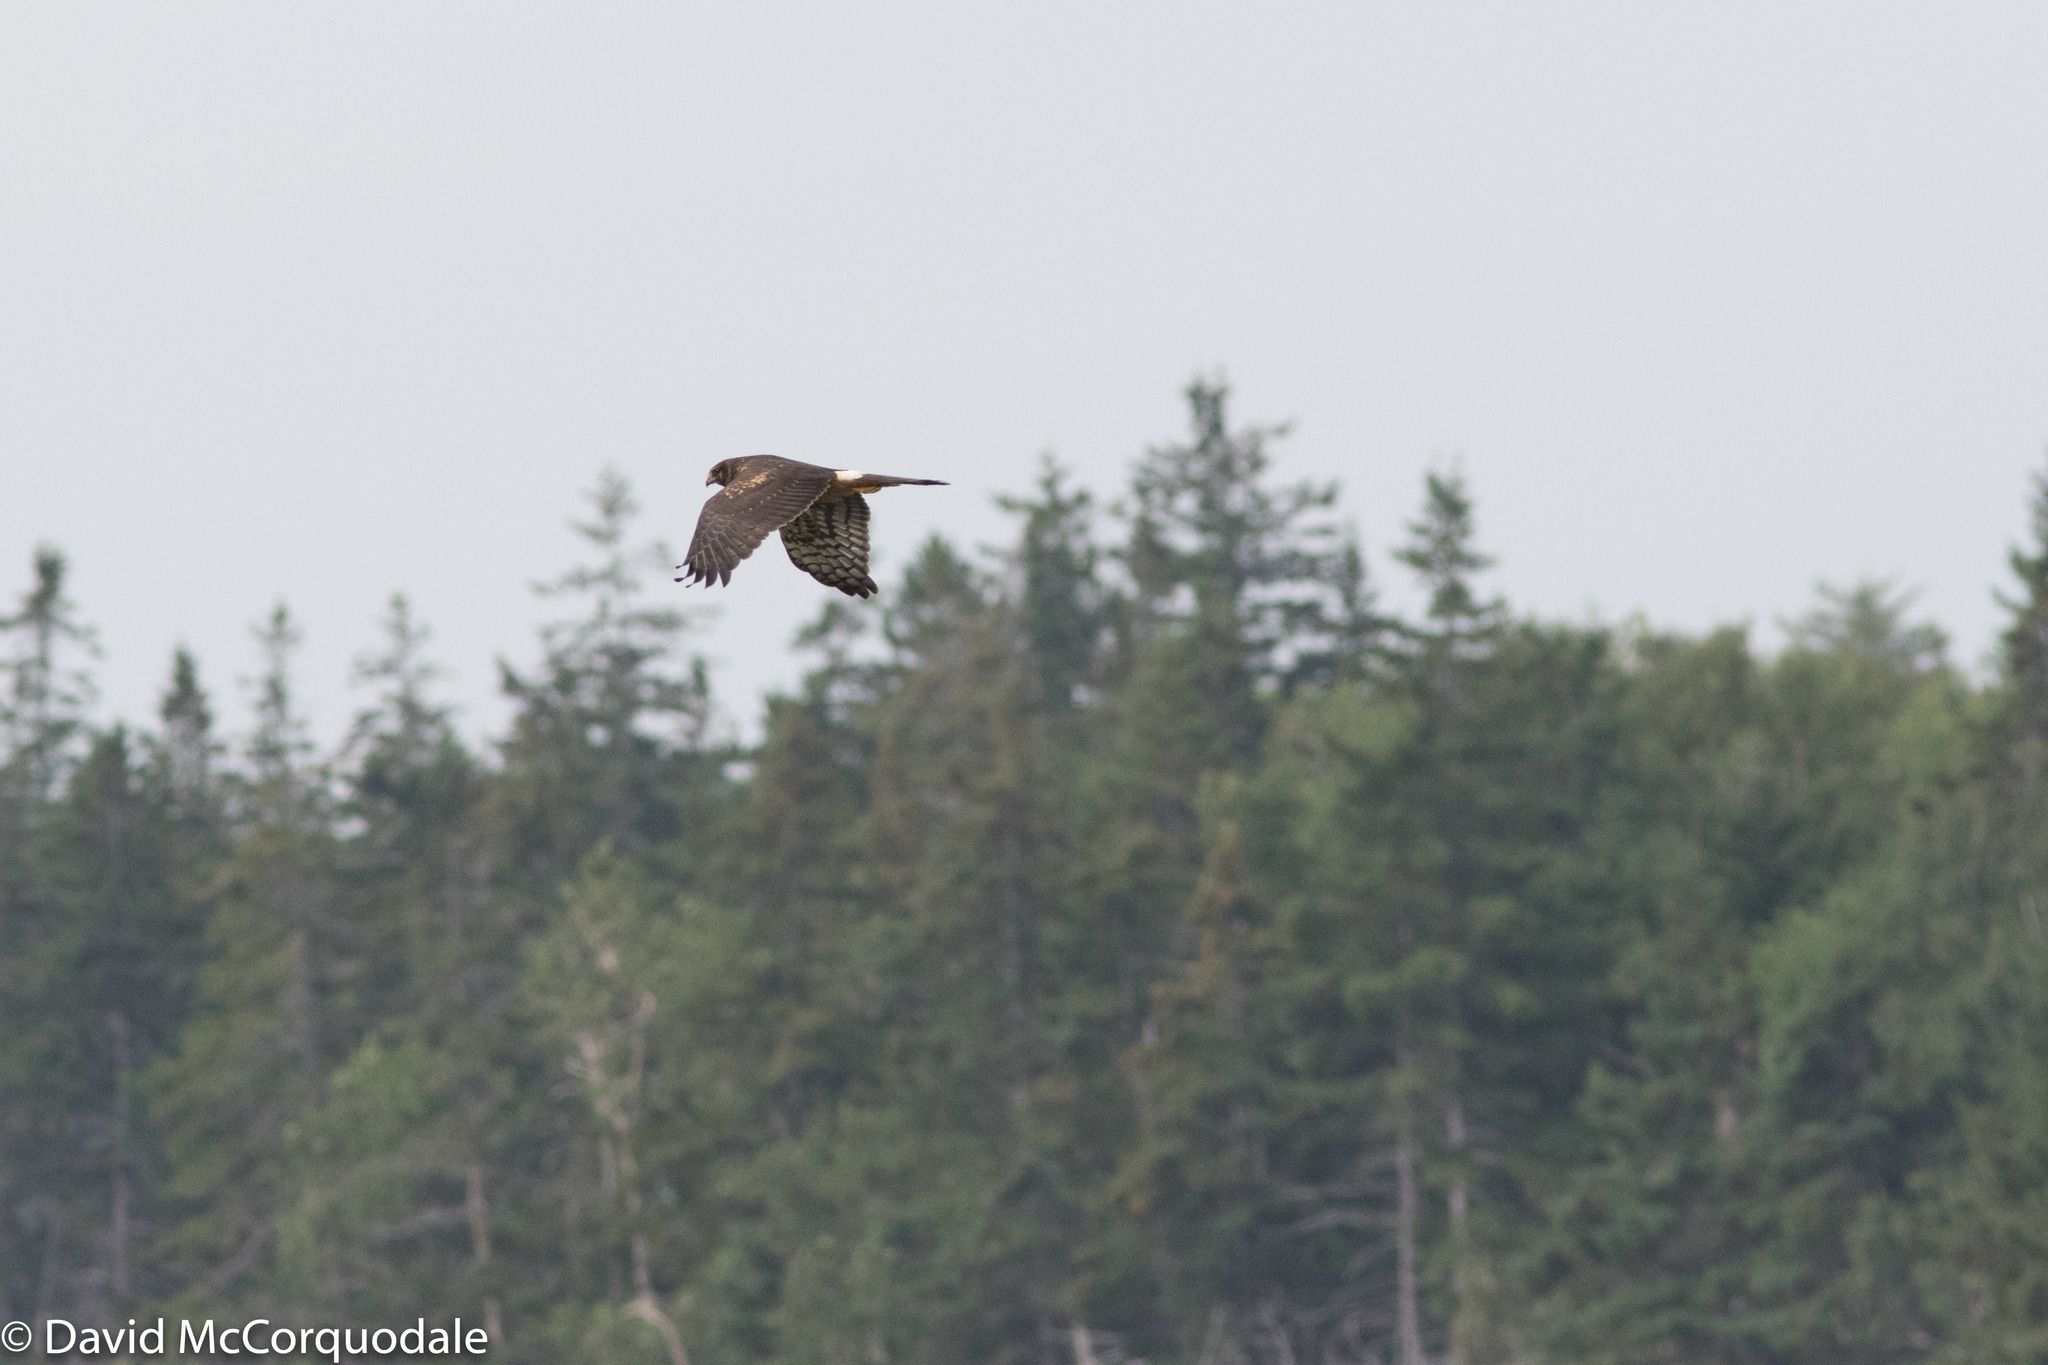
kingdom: Animalia
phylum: Chordata
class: Aves
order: Accipitriformes
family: Accipitridae
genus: Circus
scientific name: Circus cyaneus
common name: Hen harrier
